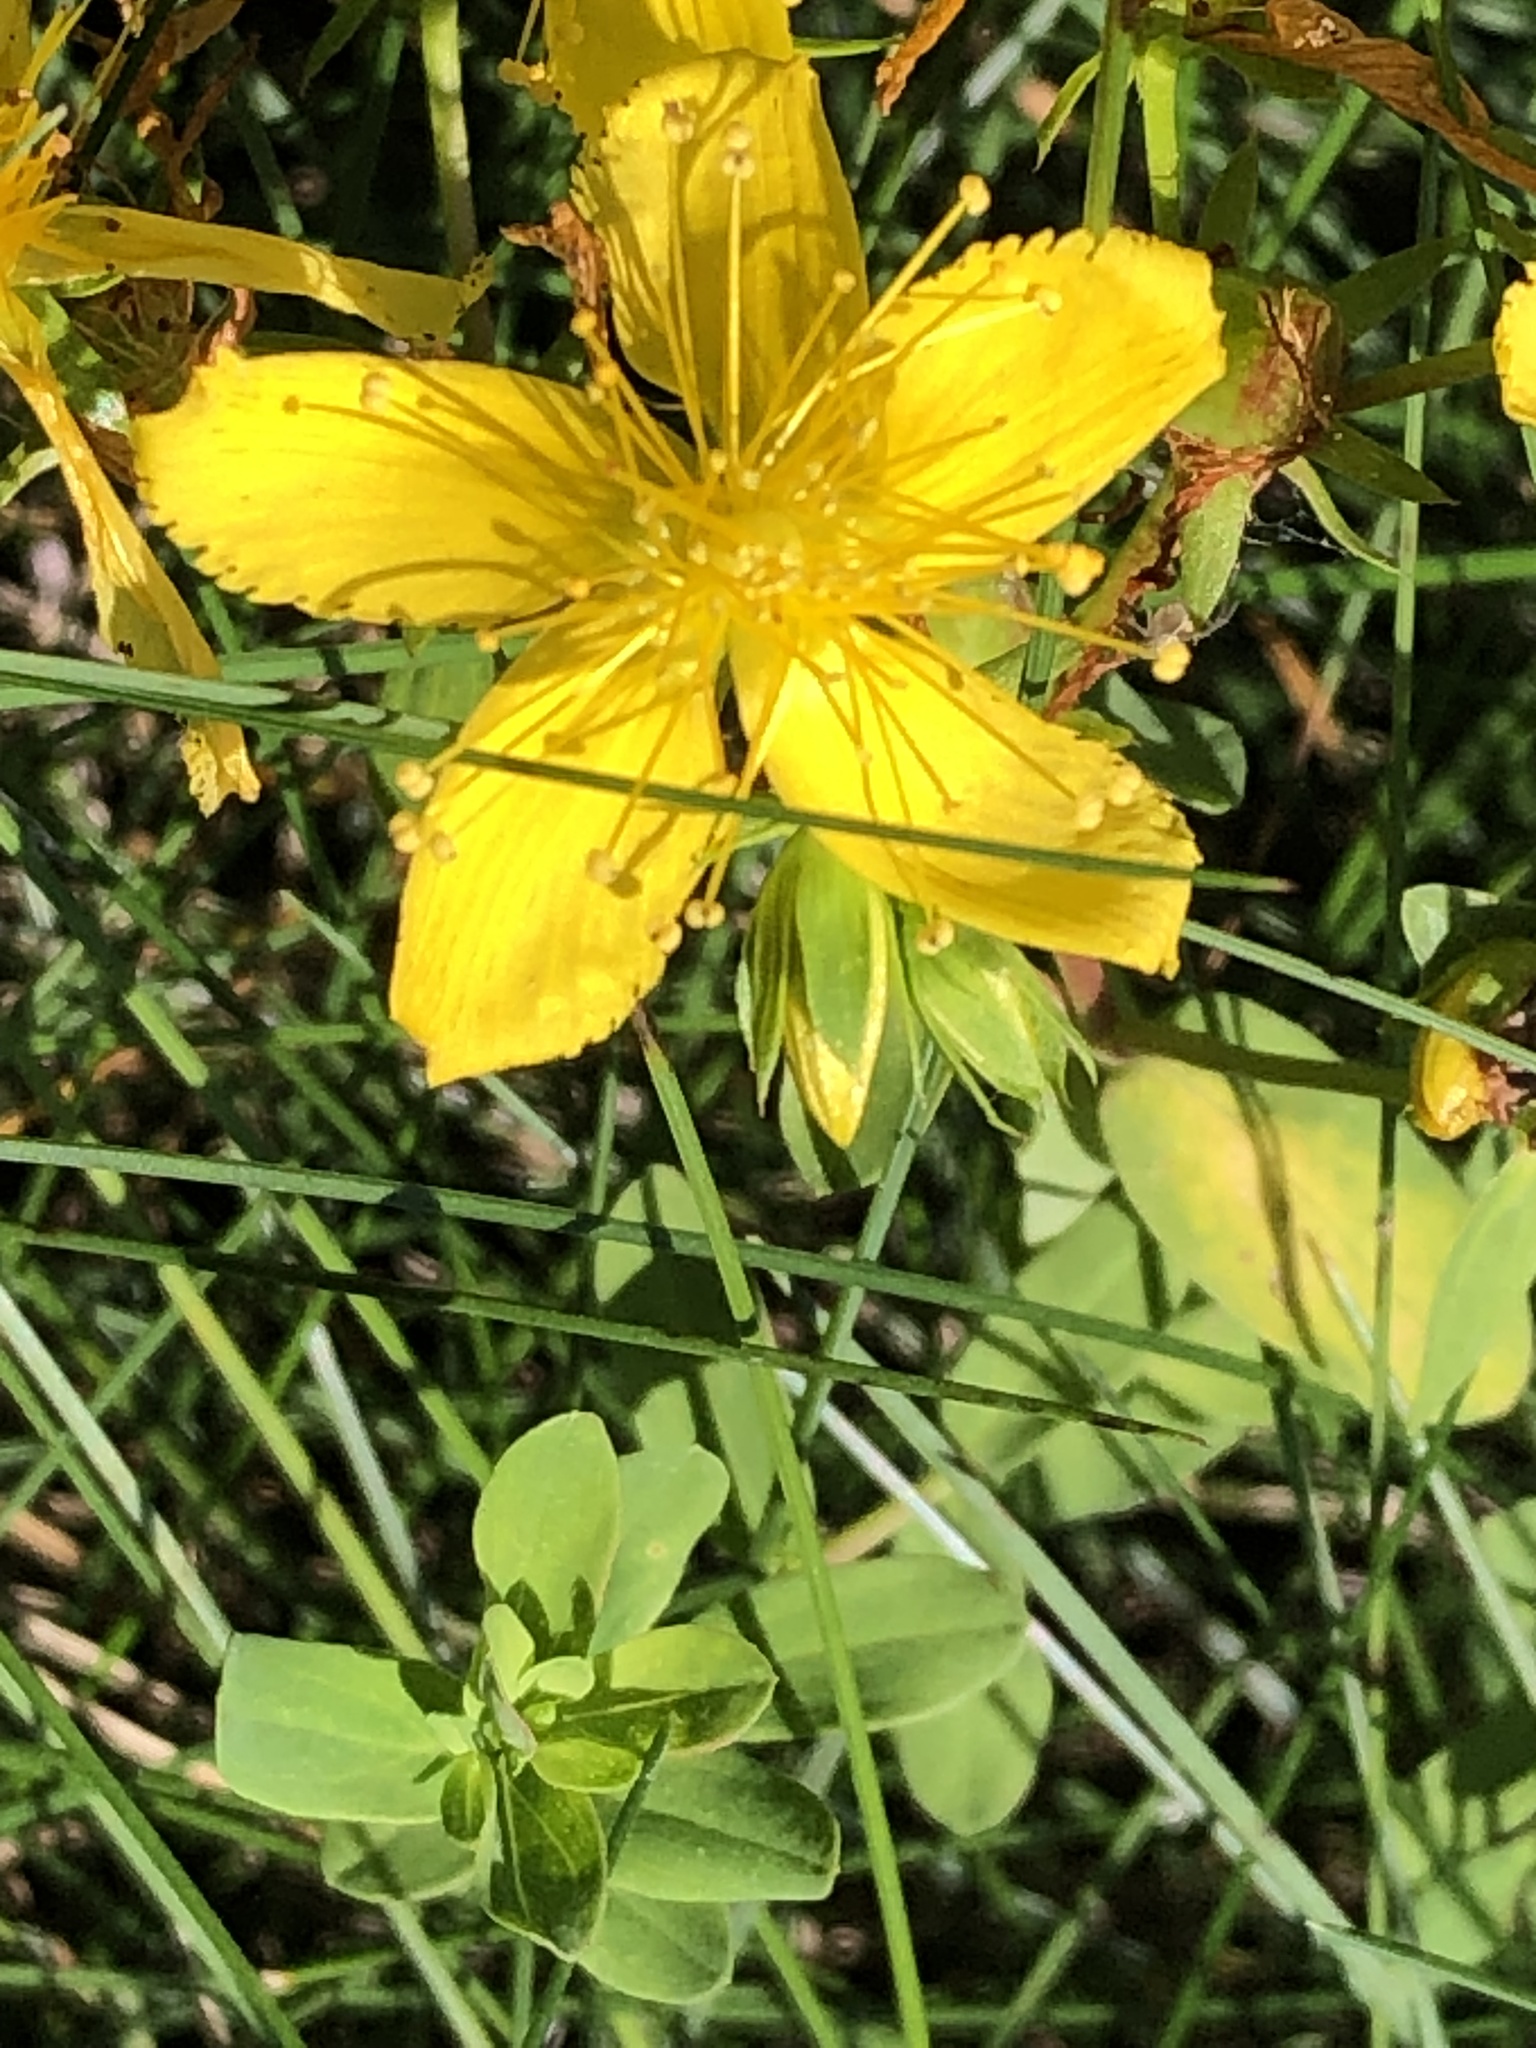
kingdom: Plantae
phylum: Tracheophyta
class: Magnoliopsida
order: Malpighiales
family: Hypericaceae
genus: Hypericum
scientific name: Hypericum perforatum
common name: Common st. johnswort
